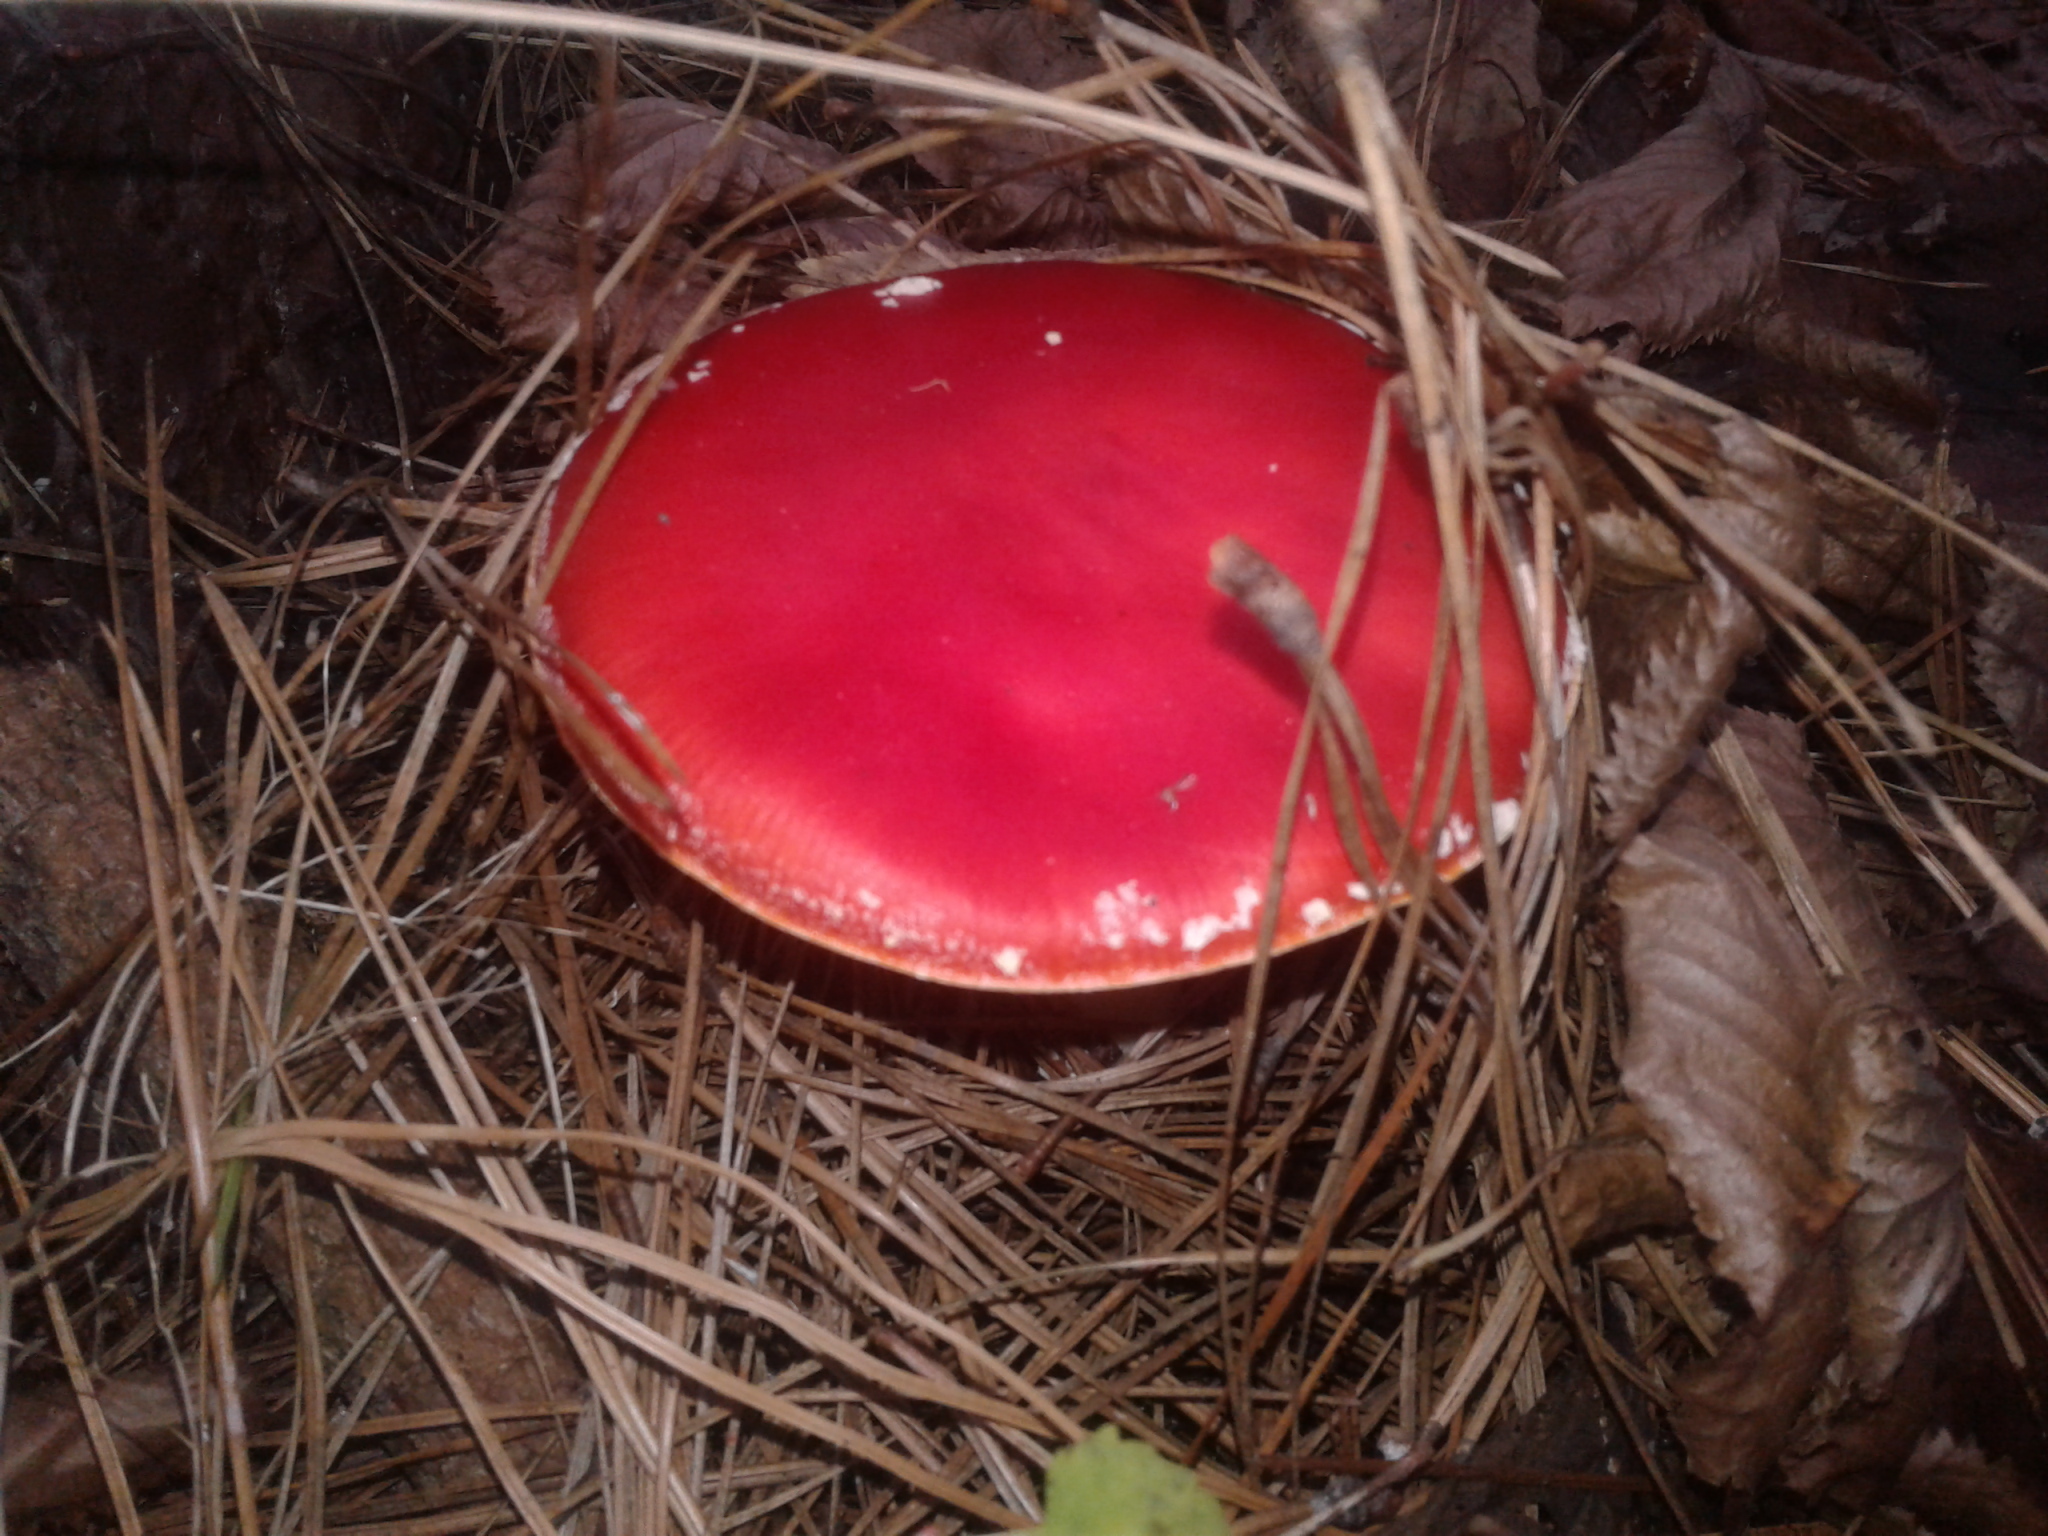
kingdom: Fungi
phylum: Basidiomycota
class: Agaricomycetes
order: Agaricales
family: Amanitaceae
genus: Amanita
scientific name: Amanita muscaria
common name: Fly agaric
